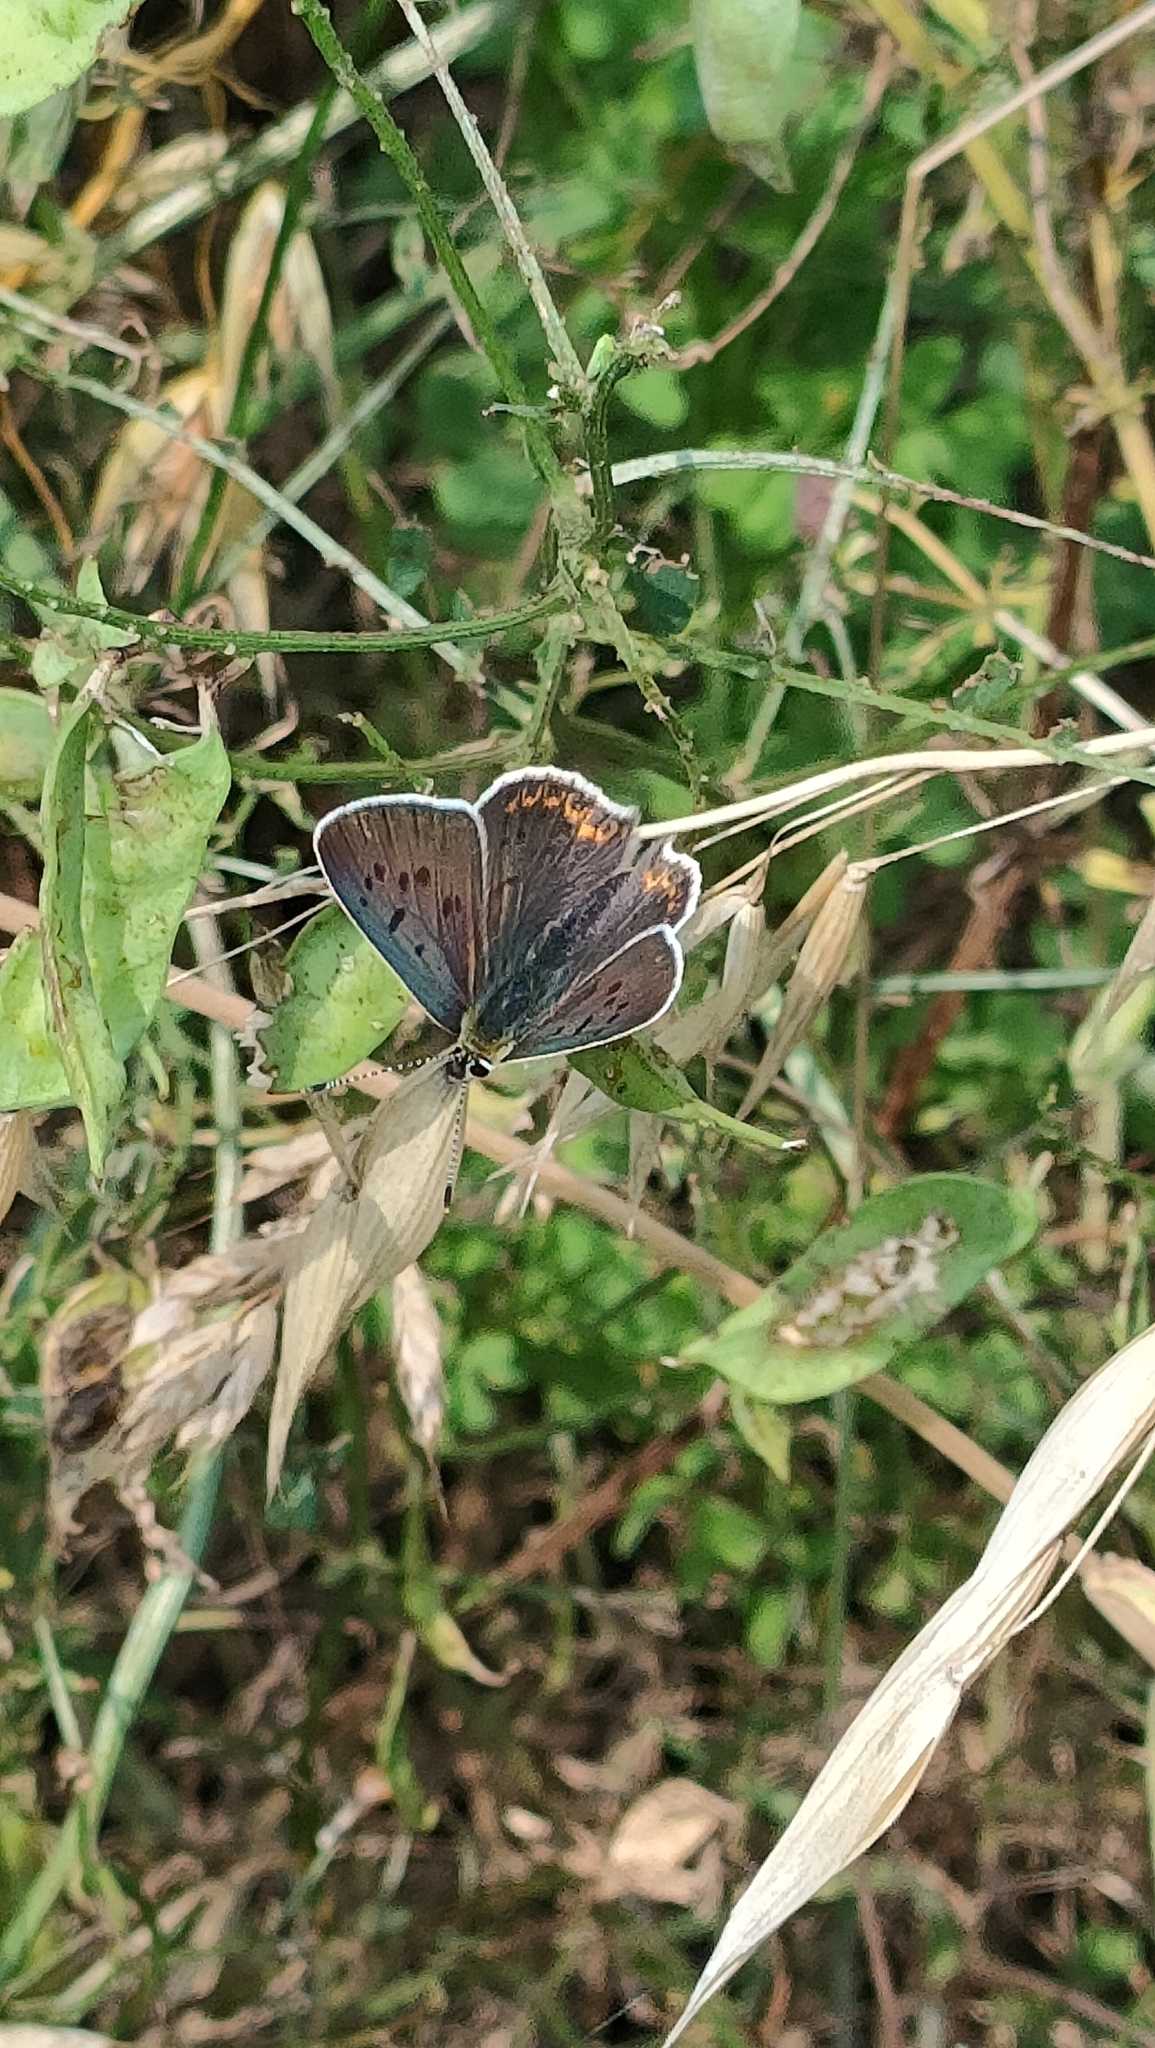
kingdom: Animalia
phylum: Arthropoda
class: Insecta
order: Lepidoptera
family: Lycaenidae
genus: Loweia
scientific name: Loweia tityrus
